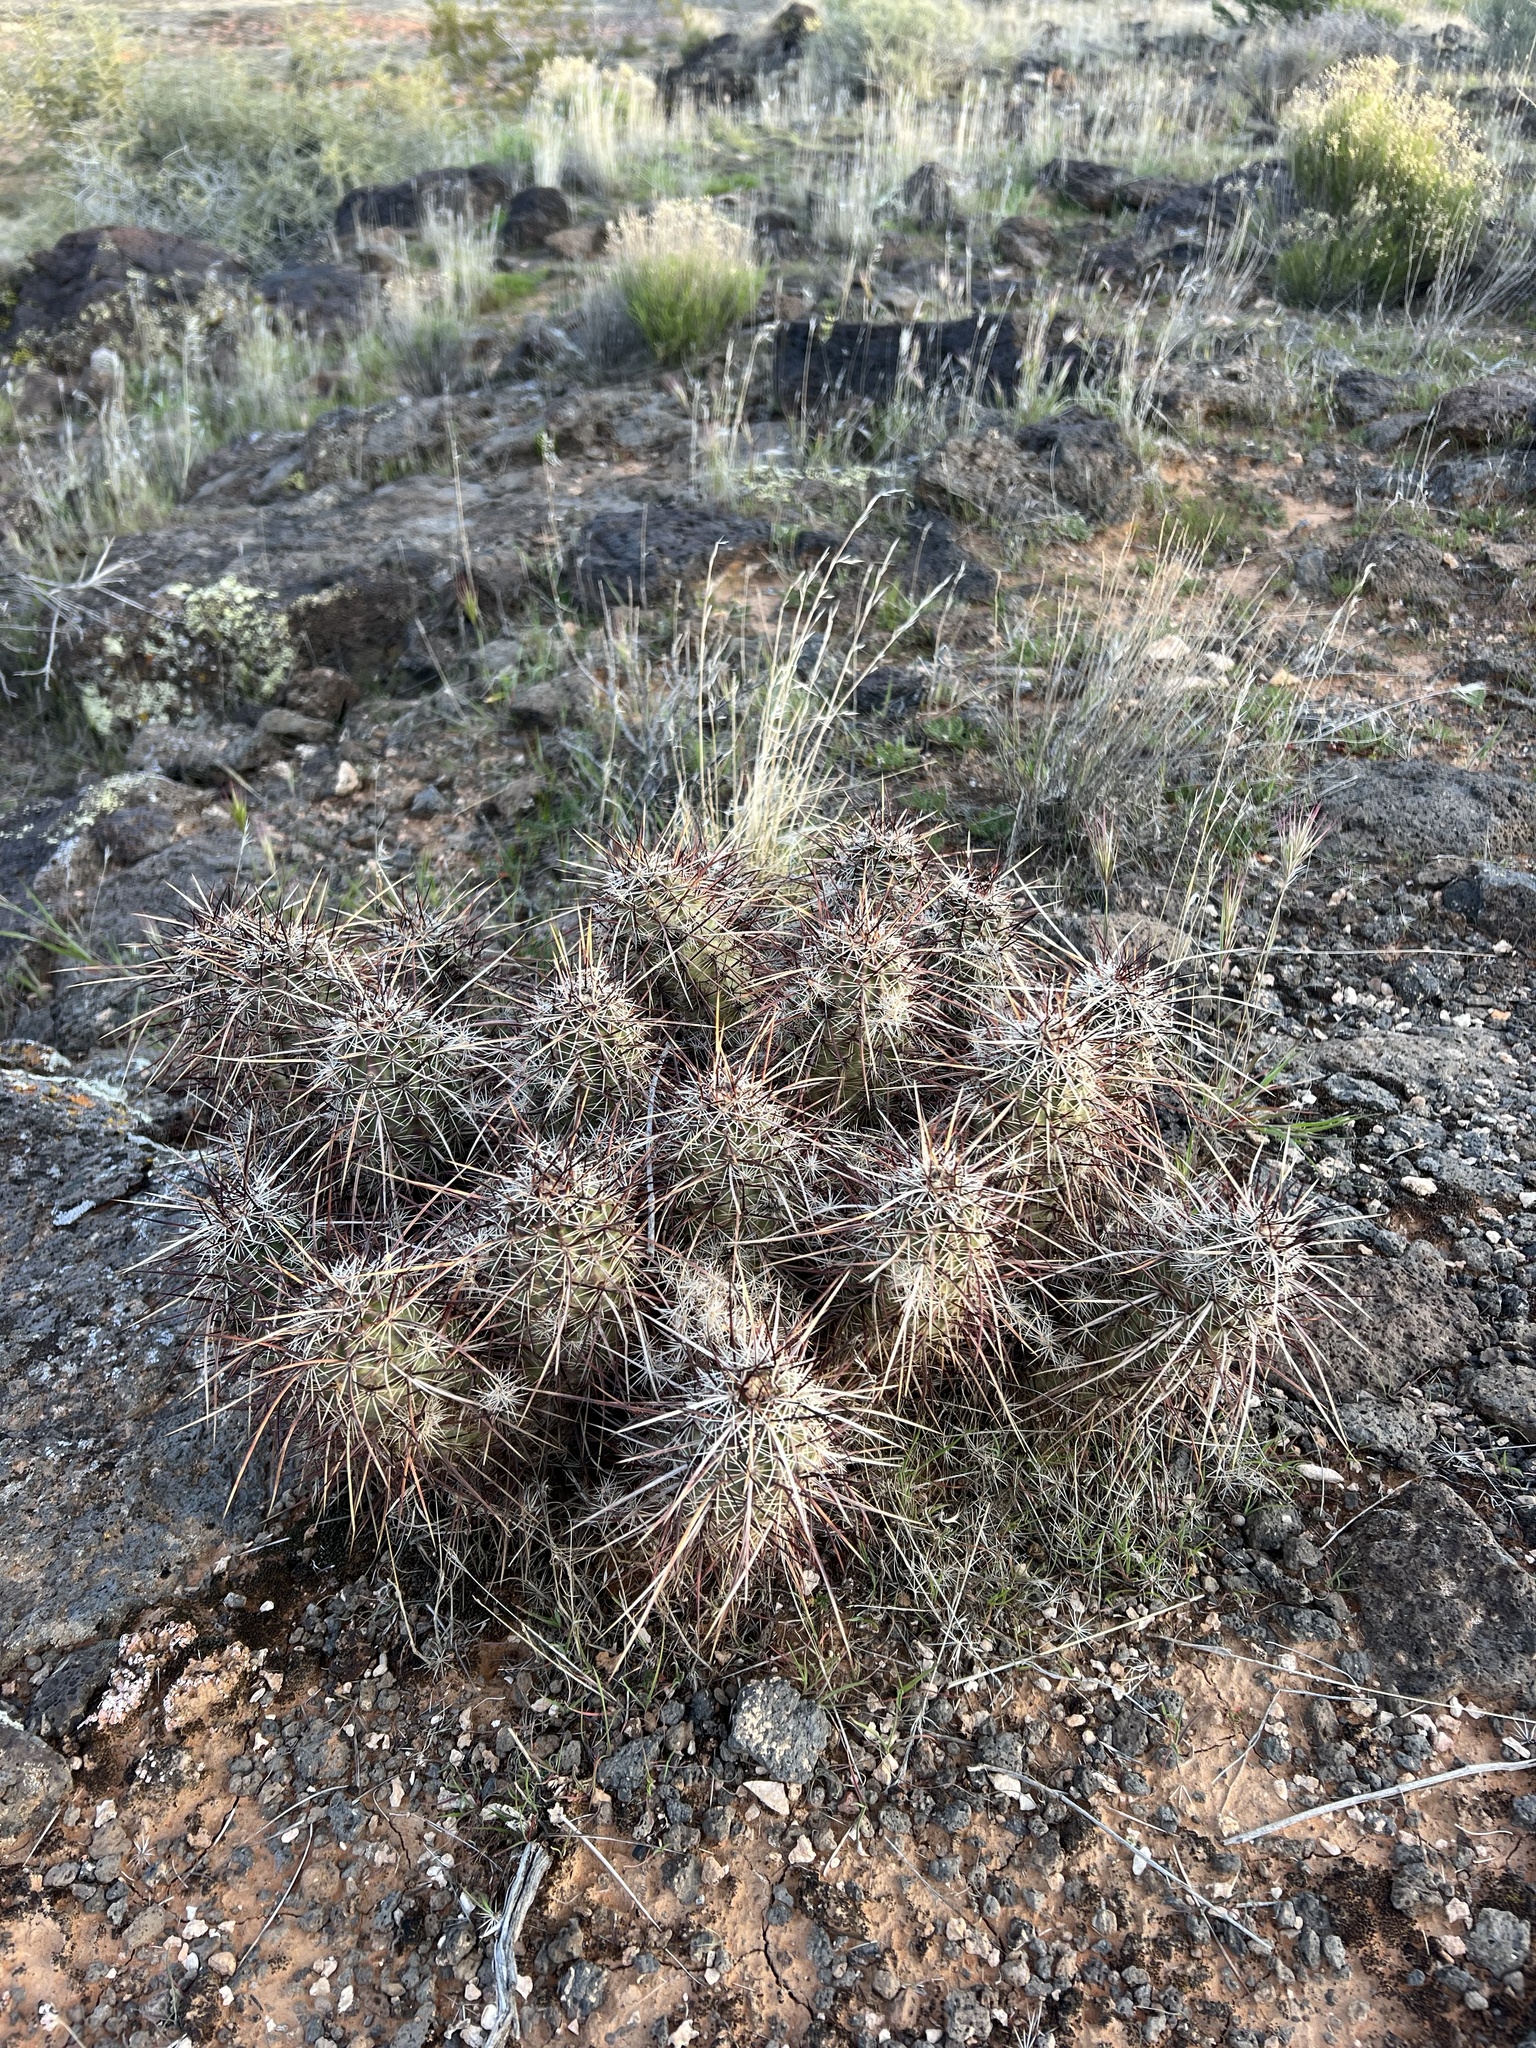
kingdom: Plantae
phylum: Tracheophyta
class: Magnoliopsida
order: Caryophyllales
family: Cactaceae
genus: Echinocereus
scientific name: Echinocereus relictus
